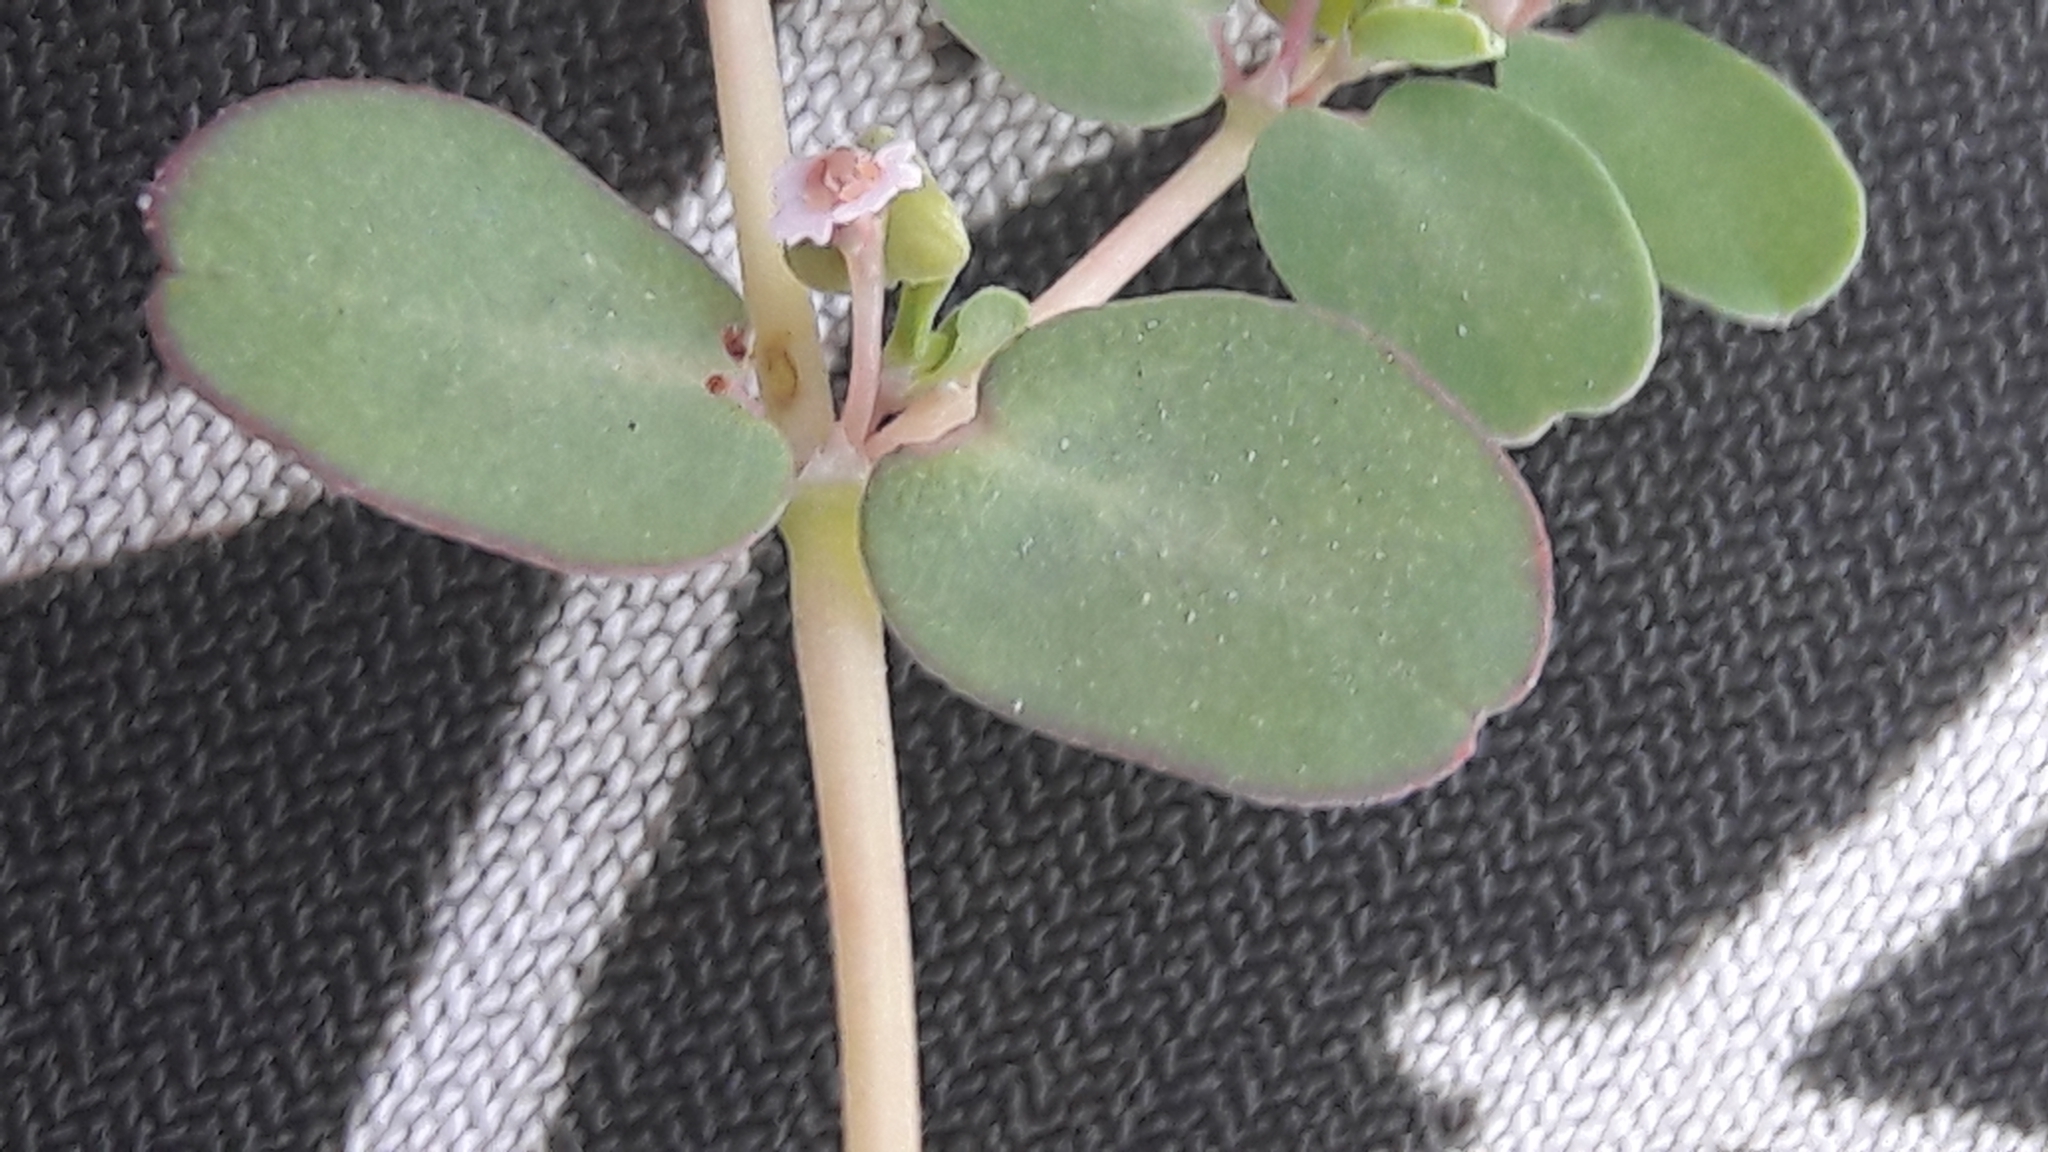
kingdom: Plantae
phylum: Tracheophyta
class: Magnoliopsida
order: Malpighiales
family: Euphorbiaceae
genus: Euphorbia
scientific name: Euphorbia serpens
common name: Matted sandmat
